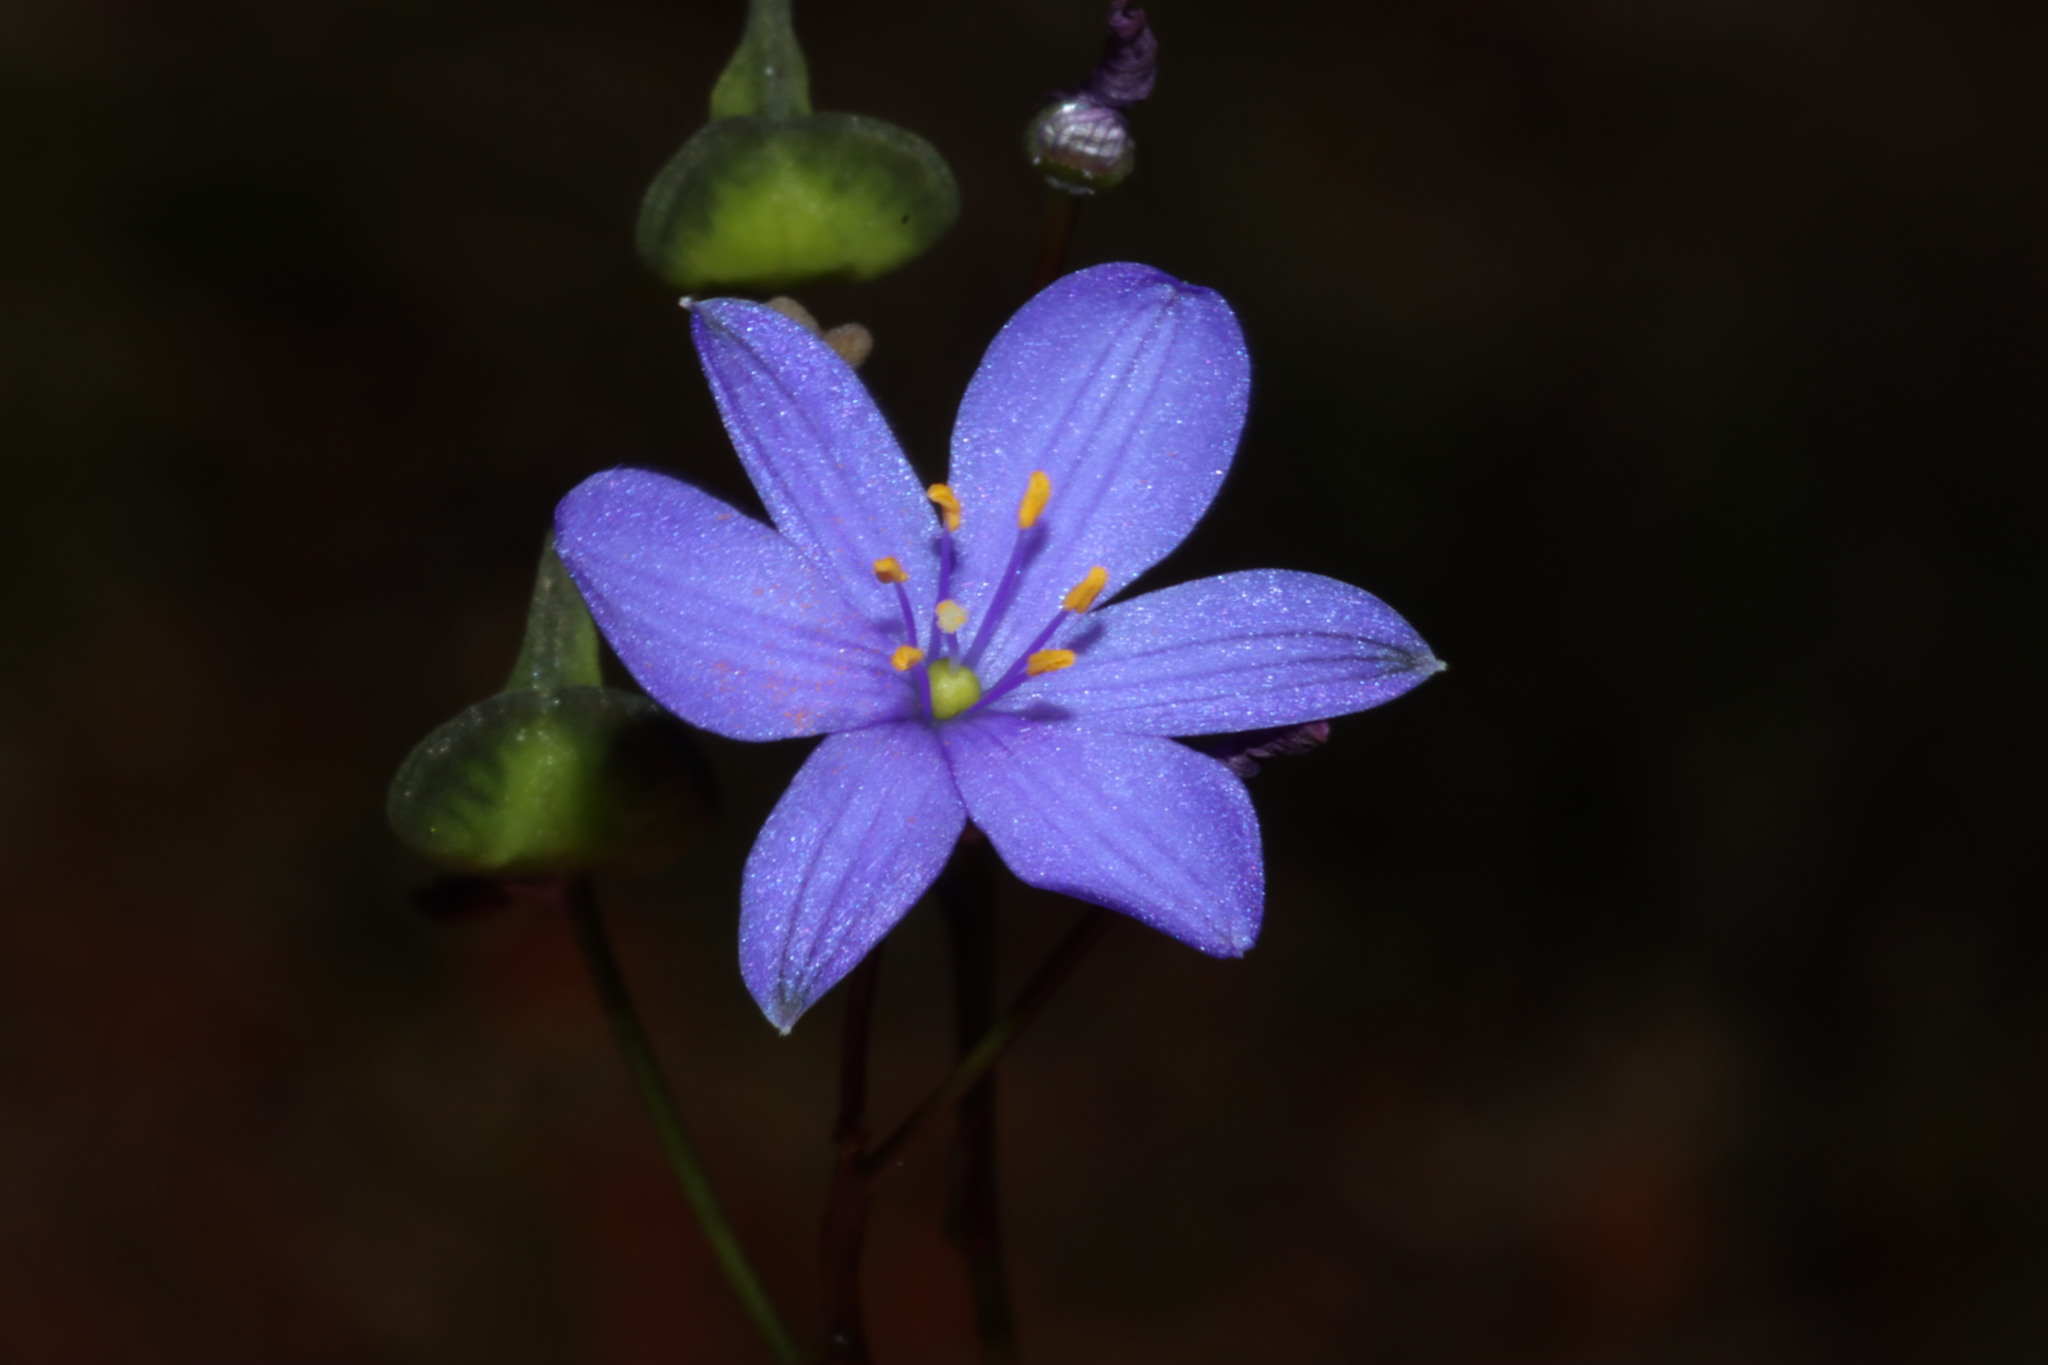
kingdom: Plantae
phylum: Tracheophyta
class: Liliopsida
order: Asparagales
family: Asphodelaceae
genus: Chamaescilla
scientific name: Chamaescilla corymbosa
